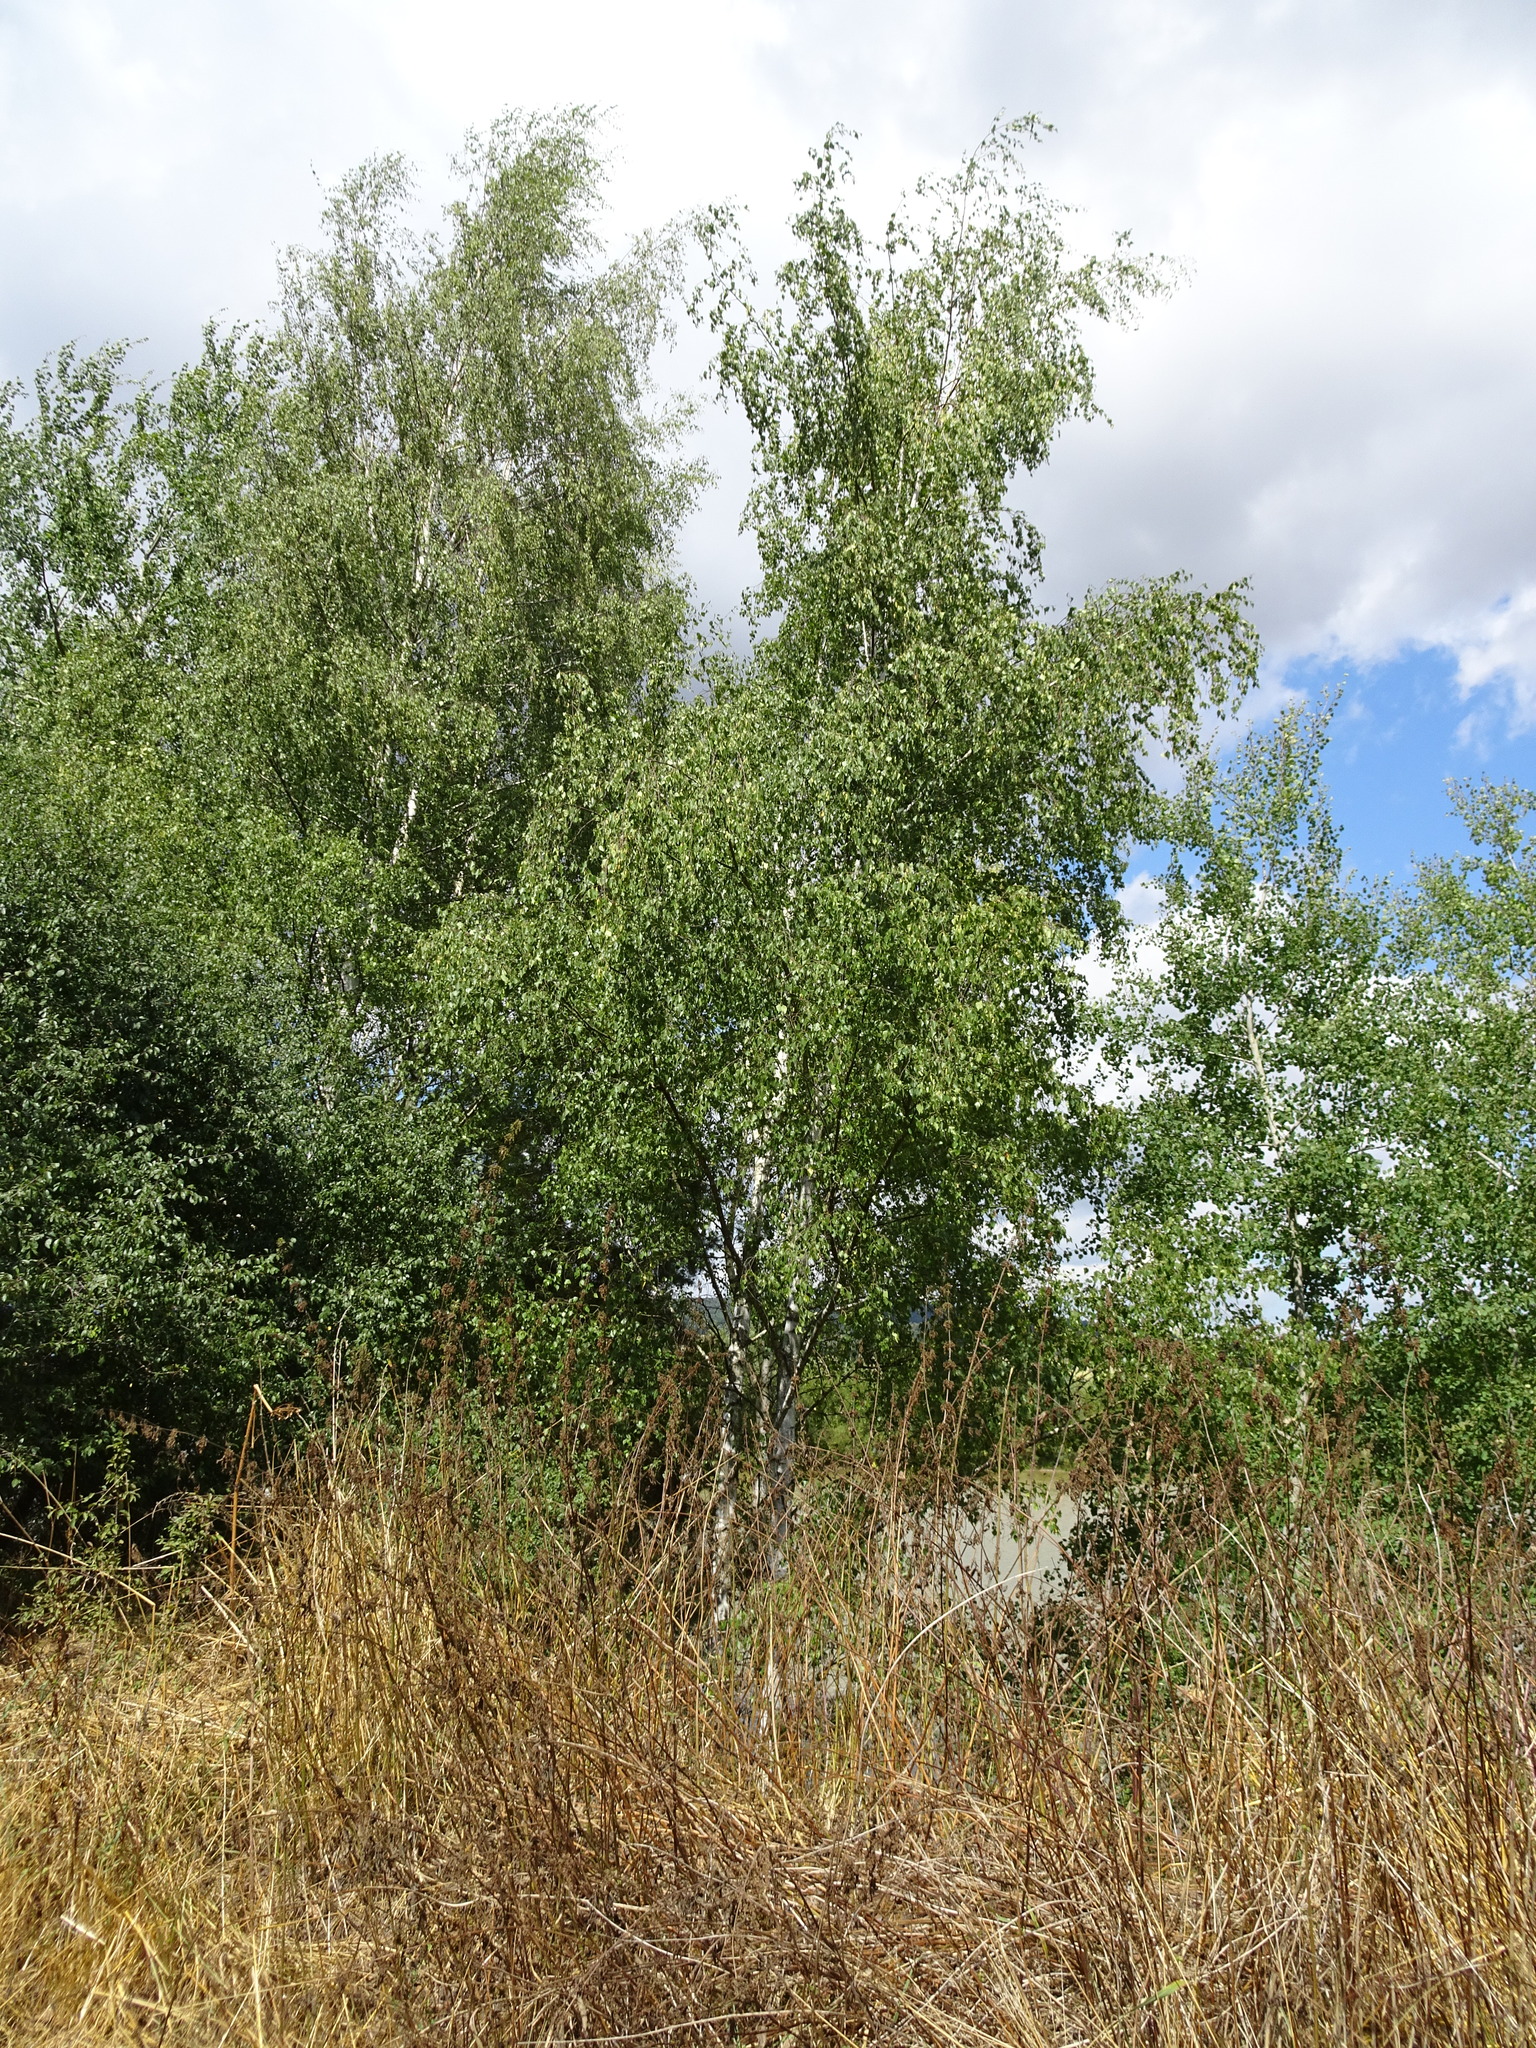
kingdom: Plantae
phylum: Tracheophyta
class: Magnoliopsida
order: Fagales
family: Betulaceae
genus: Betula
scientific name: Betula pendula
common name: Silver birch
